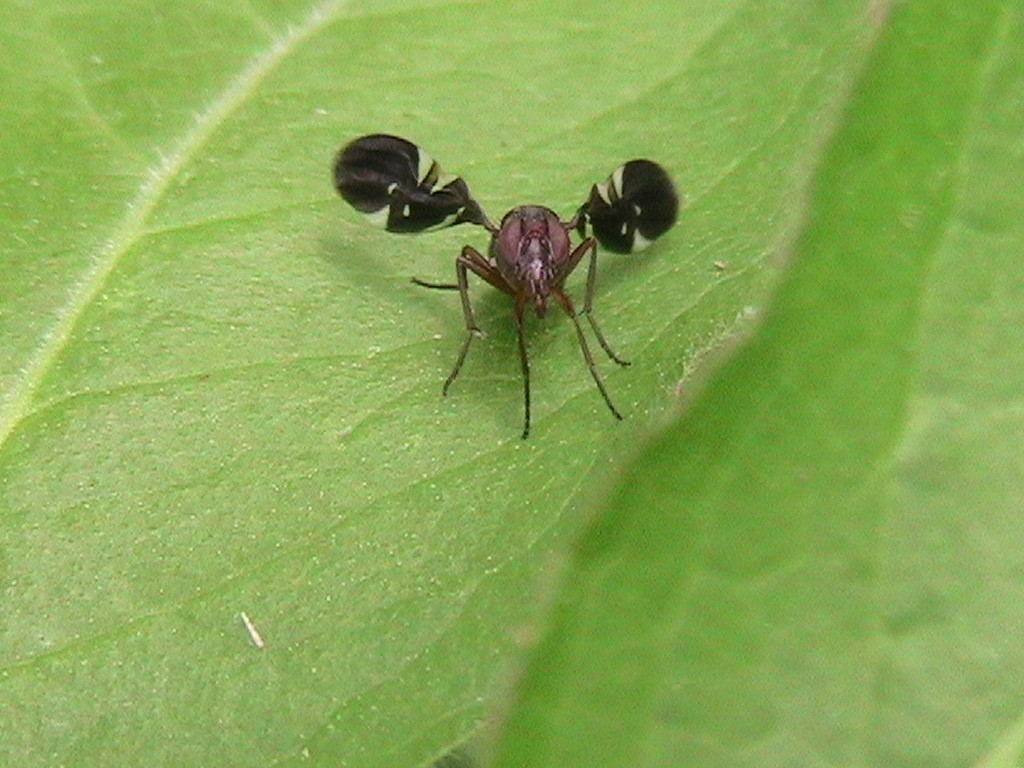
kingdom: Animalia
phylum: Arthropoda
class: Insecta
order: Diptera
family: Ulidiidae
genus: Delphinia
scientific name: Delphinia picta
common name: Common picture-winged fly
